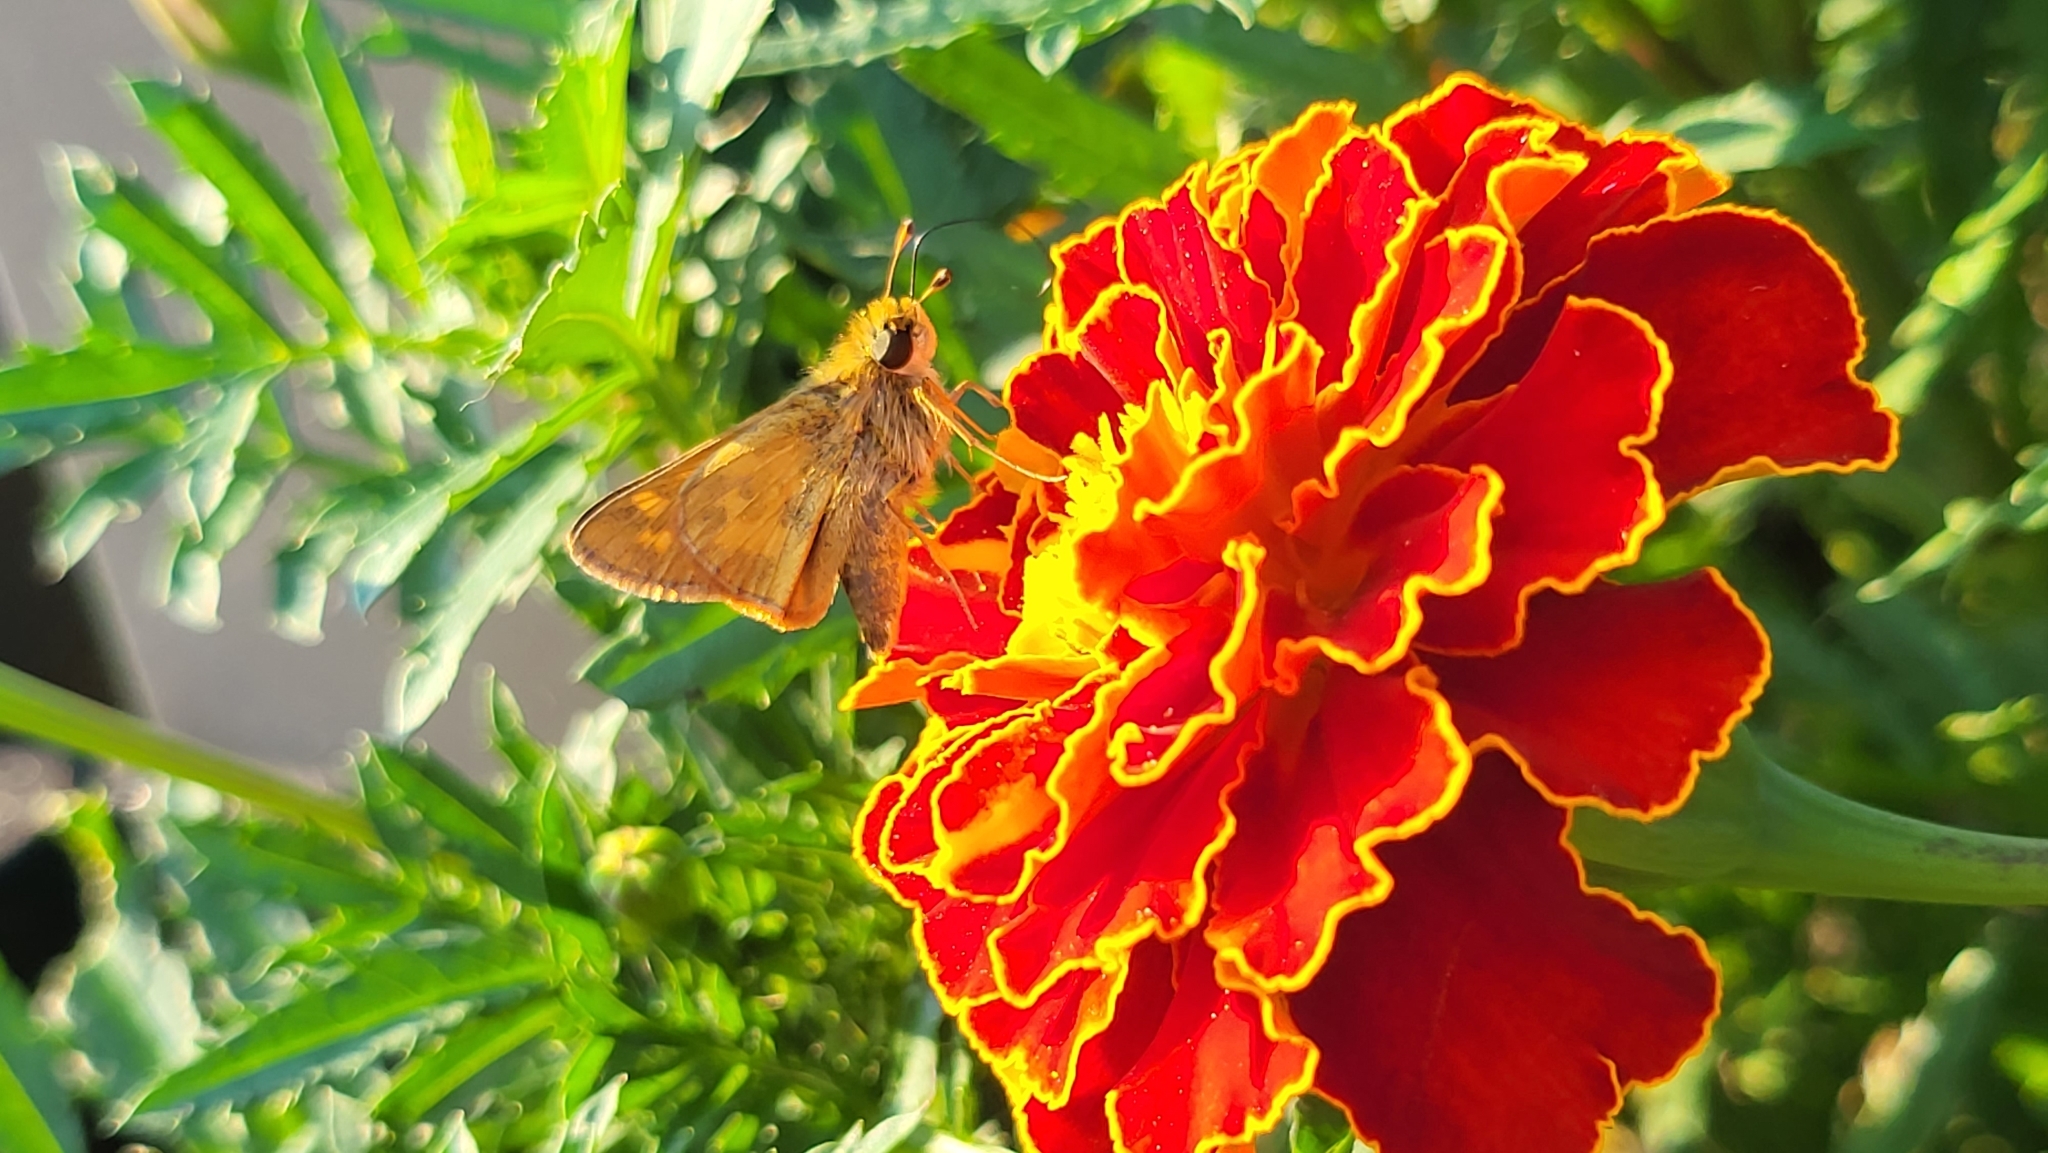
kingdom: Animalia
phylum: Arthropoda
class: Insecta
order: Lepidoptera
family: Hesperiidae
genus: Atalopedes
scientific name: Atalopedes
